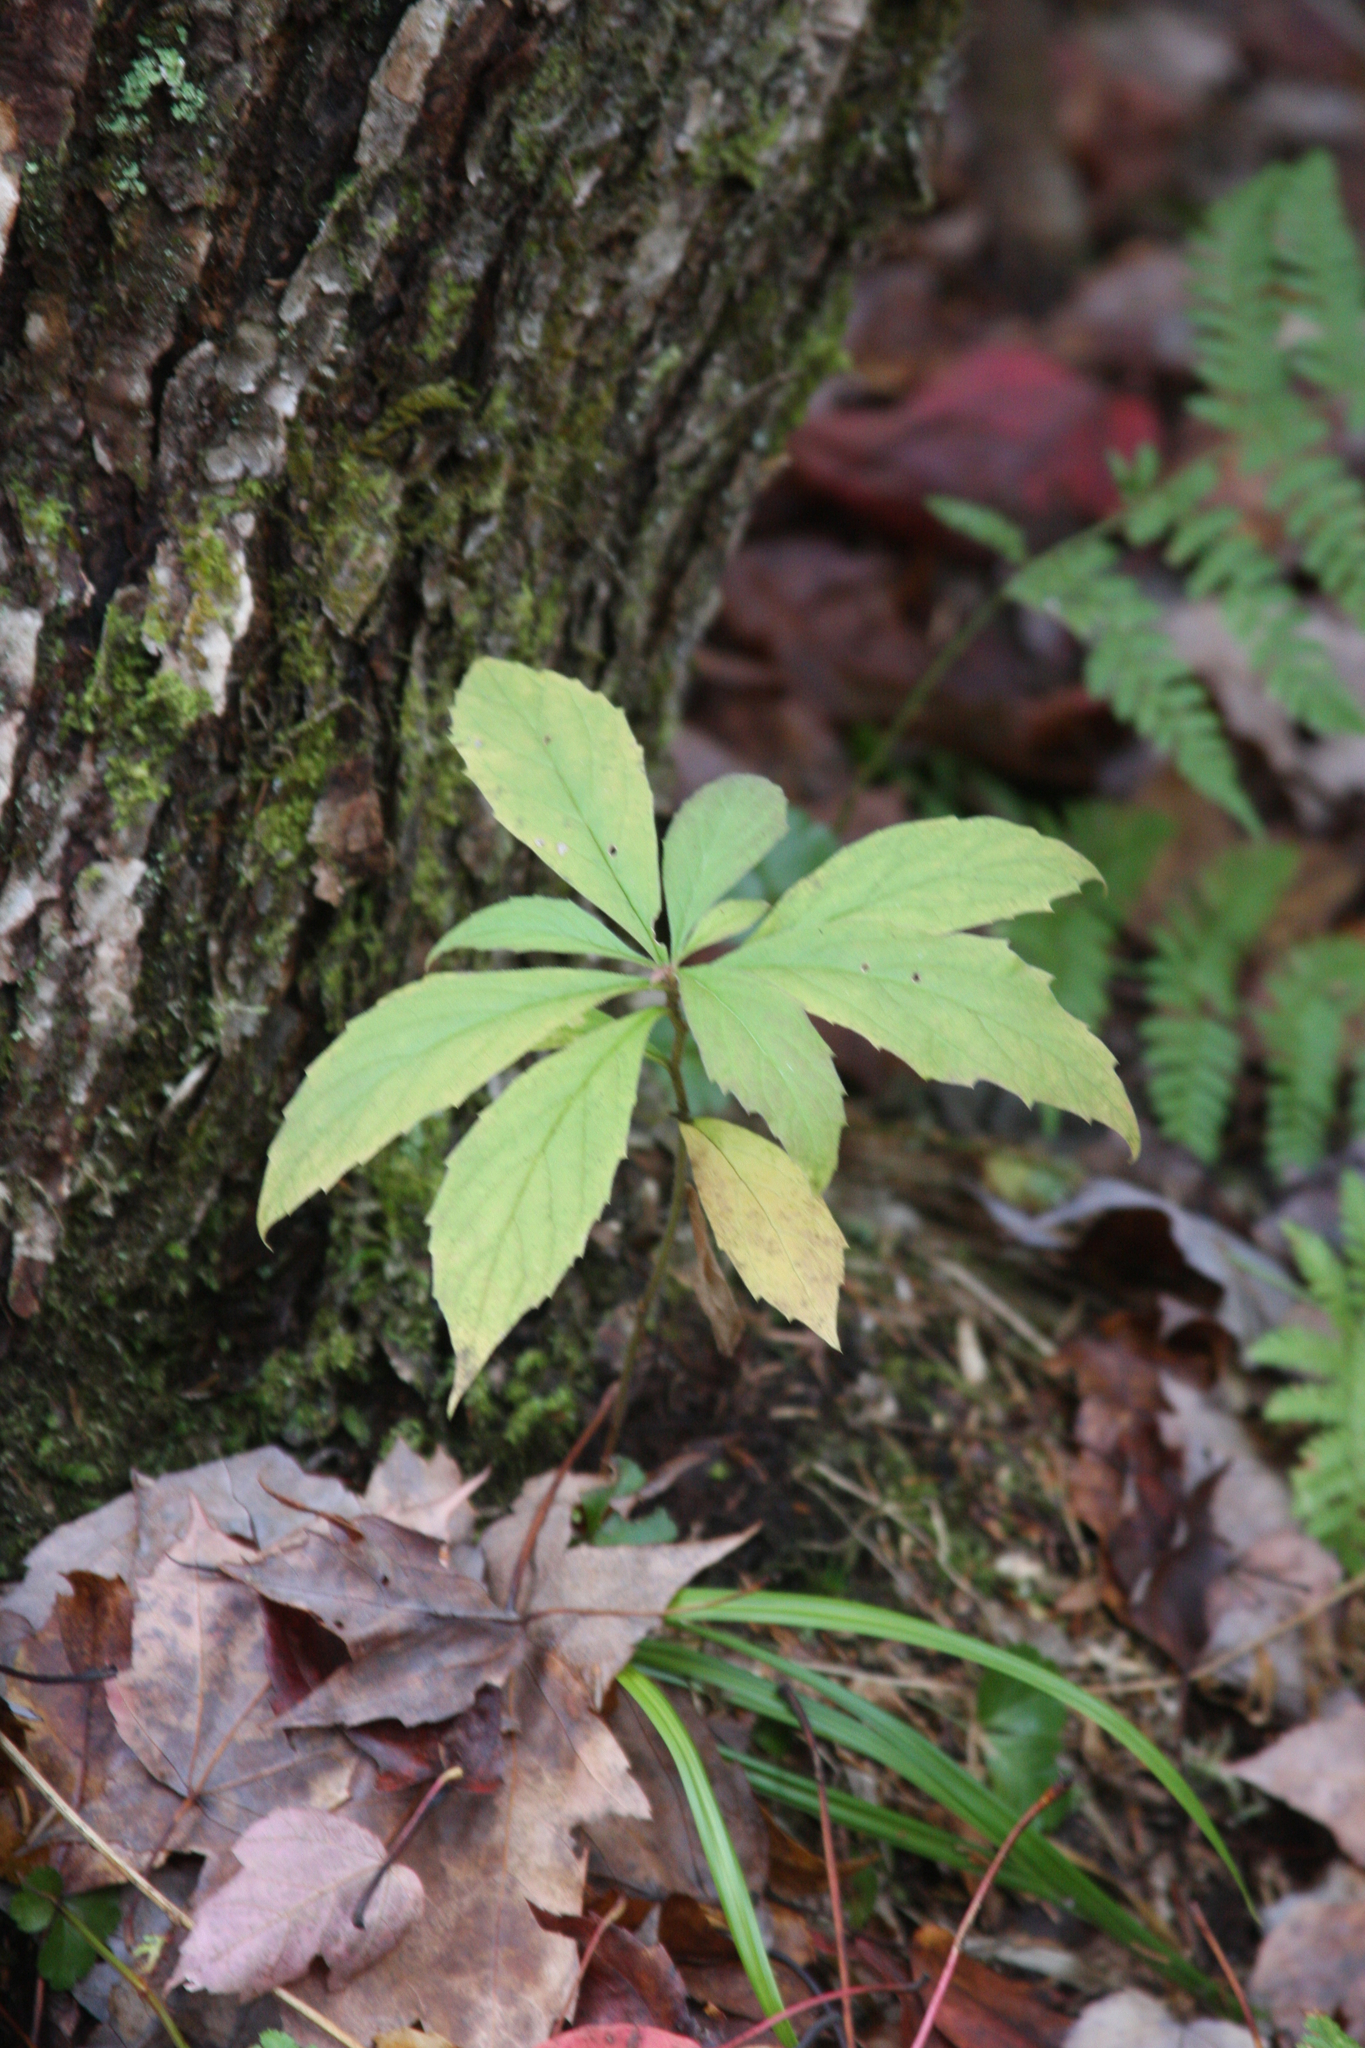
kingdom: Plantae
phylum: Tracheophyta
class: Magnoliopsida
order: Asterales
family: Asteraceae
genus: Oclemena
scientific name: Oclemena acuminata
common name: Mountain aster
